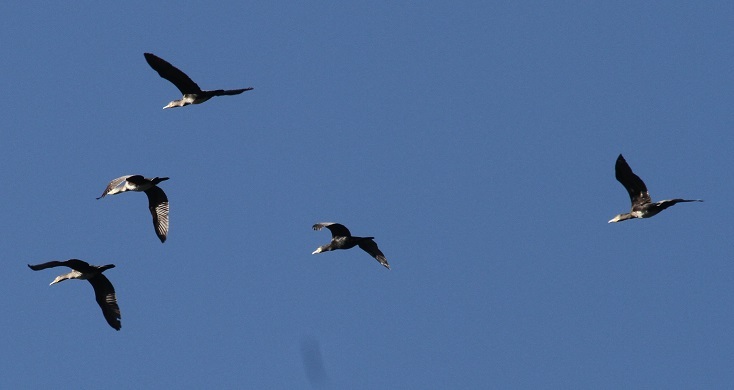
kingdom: Animalia
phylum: Chordata
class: Aves
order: Suliformes
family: Phalacrocoracidae
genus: Phalacrocorax
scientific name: Phalacrocorax carbo
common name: Great cormorant
